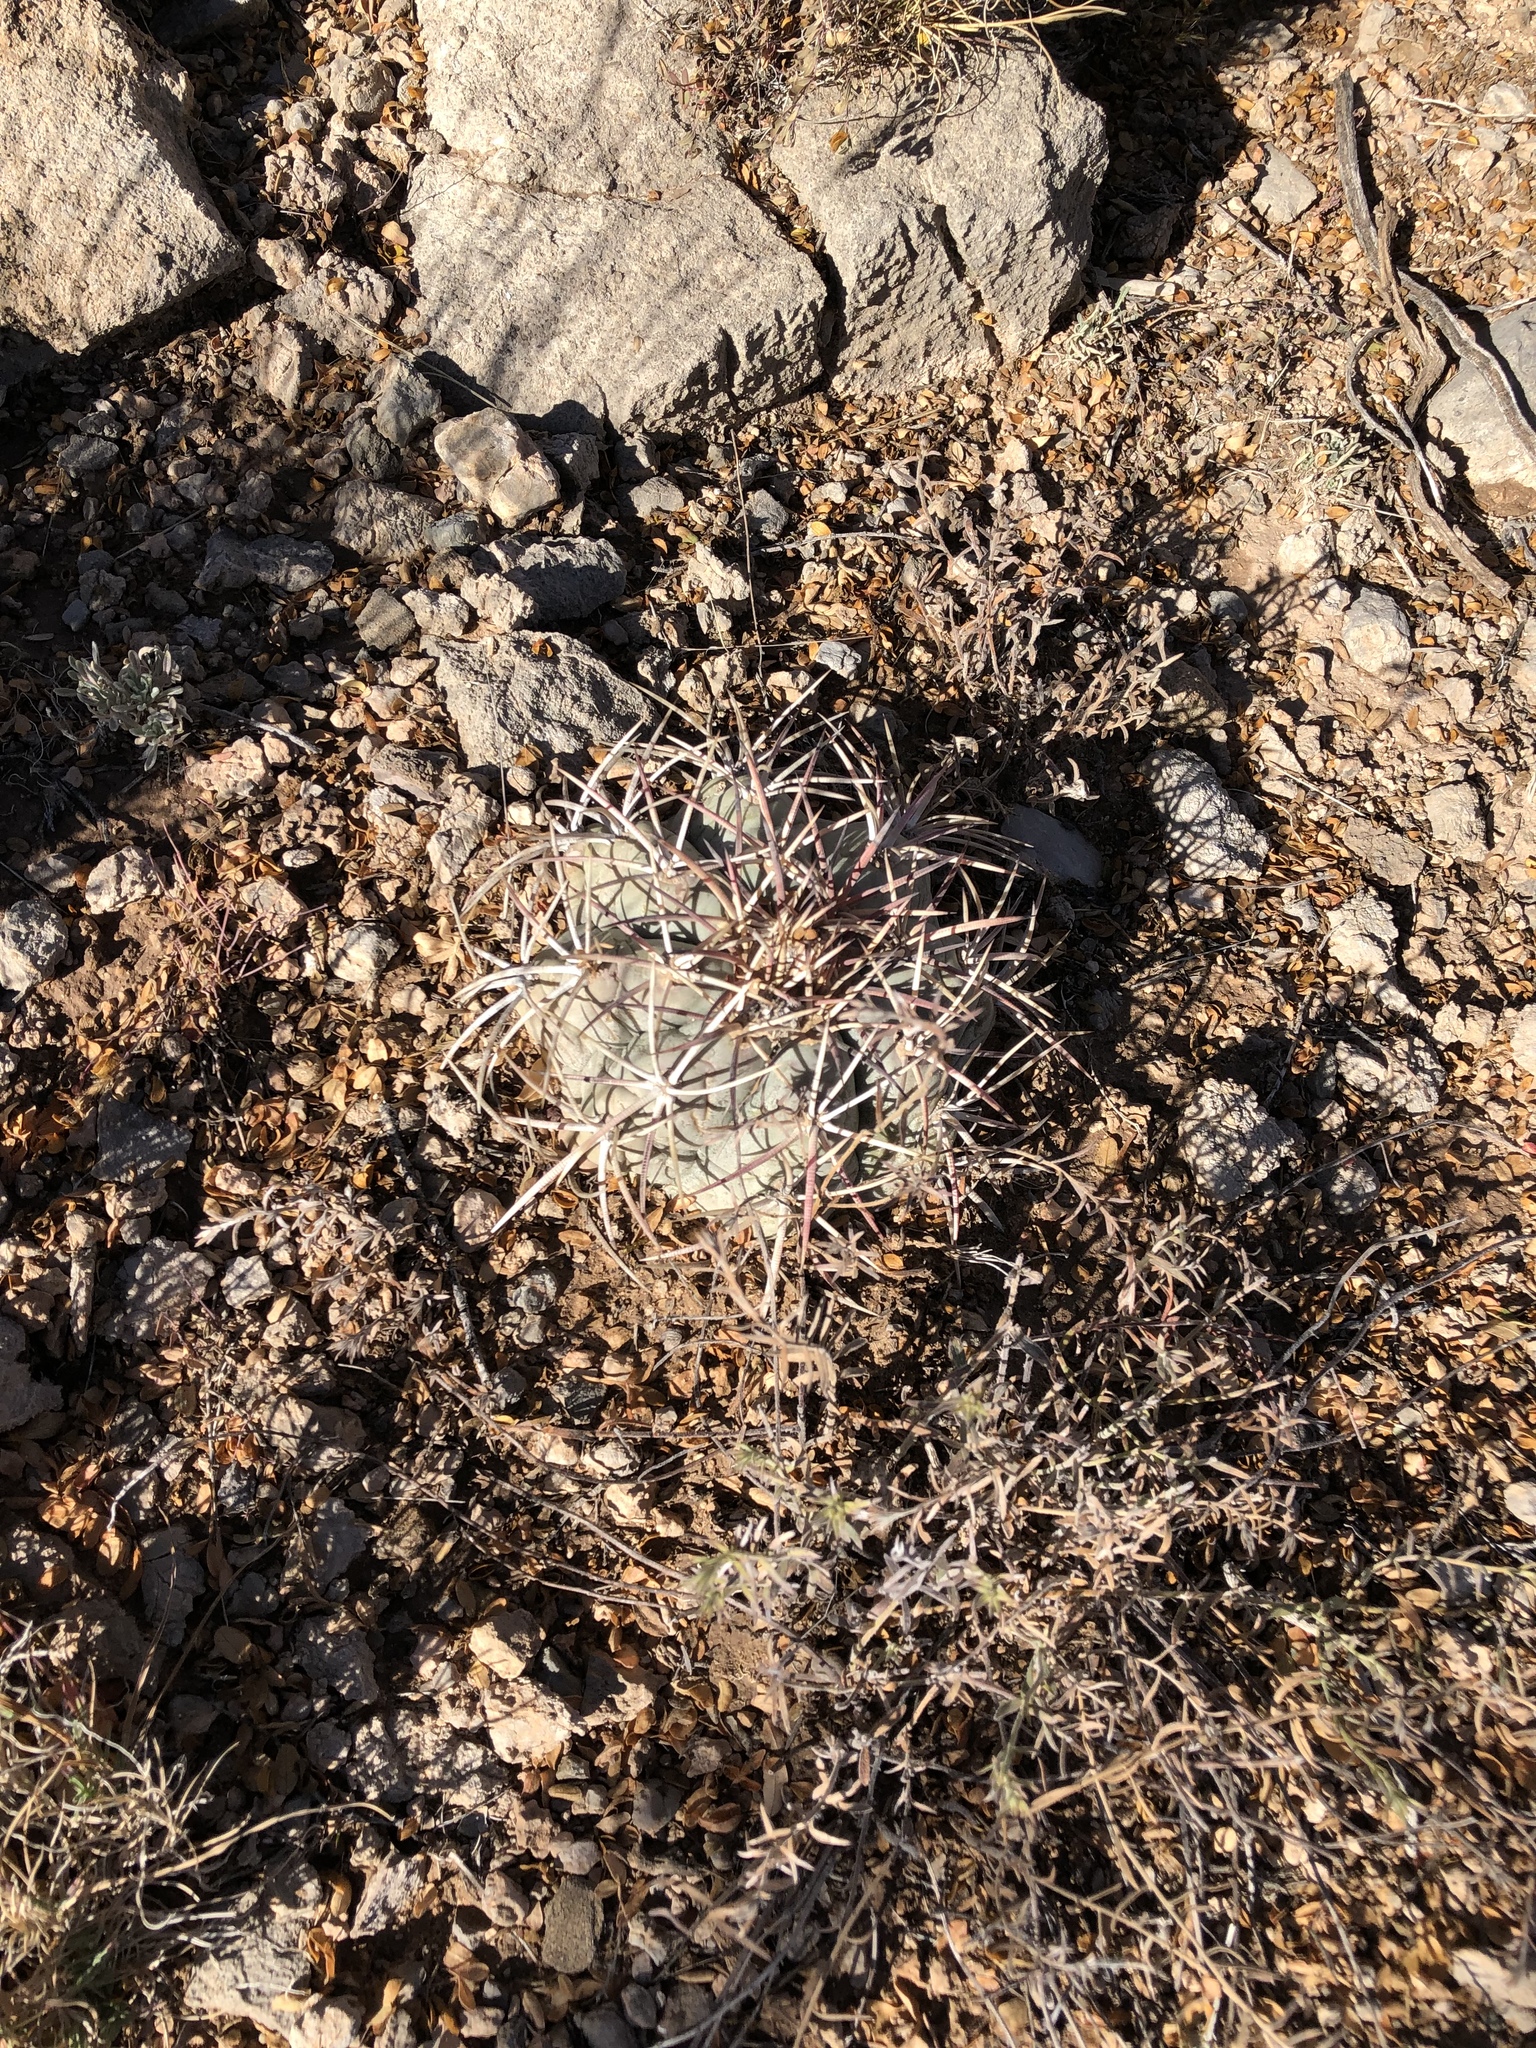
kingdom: Plantae
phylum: Tracheophyta
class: Magnoliopsida
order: Caryophyllales
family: Cactaceae
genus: Echinocactus
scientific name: Echinocactus horizonthalonius
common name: Devilshead
